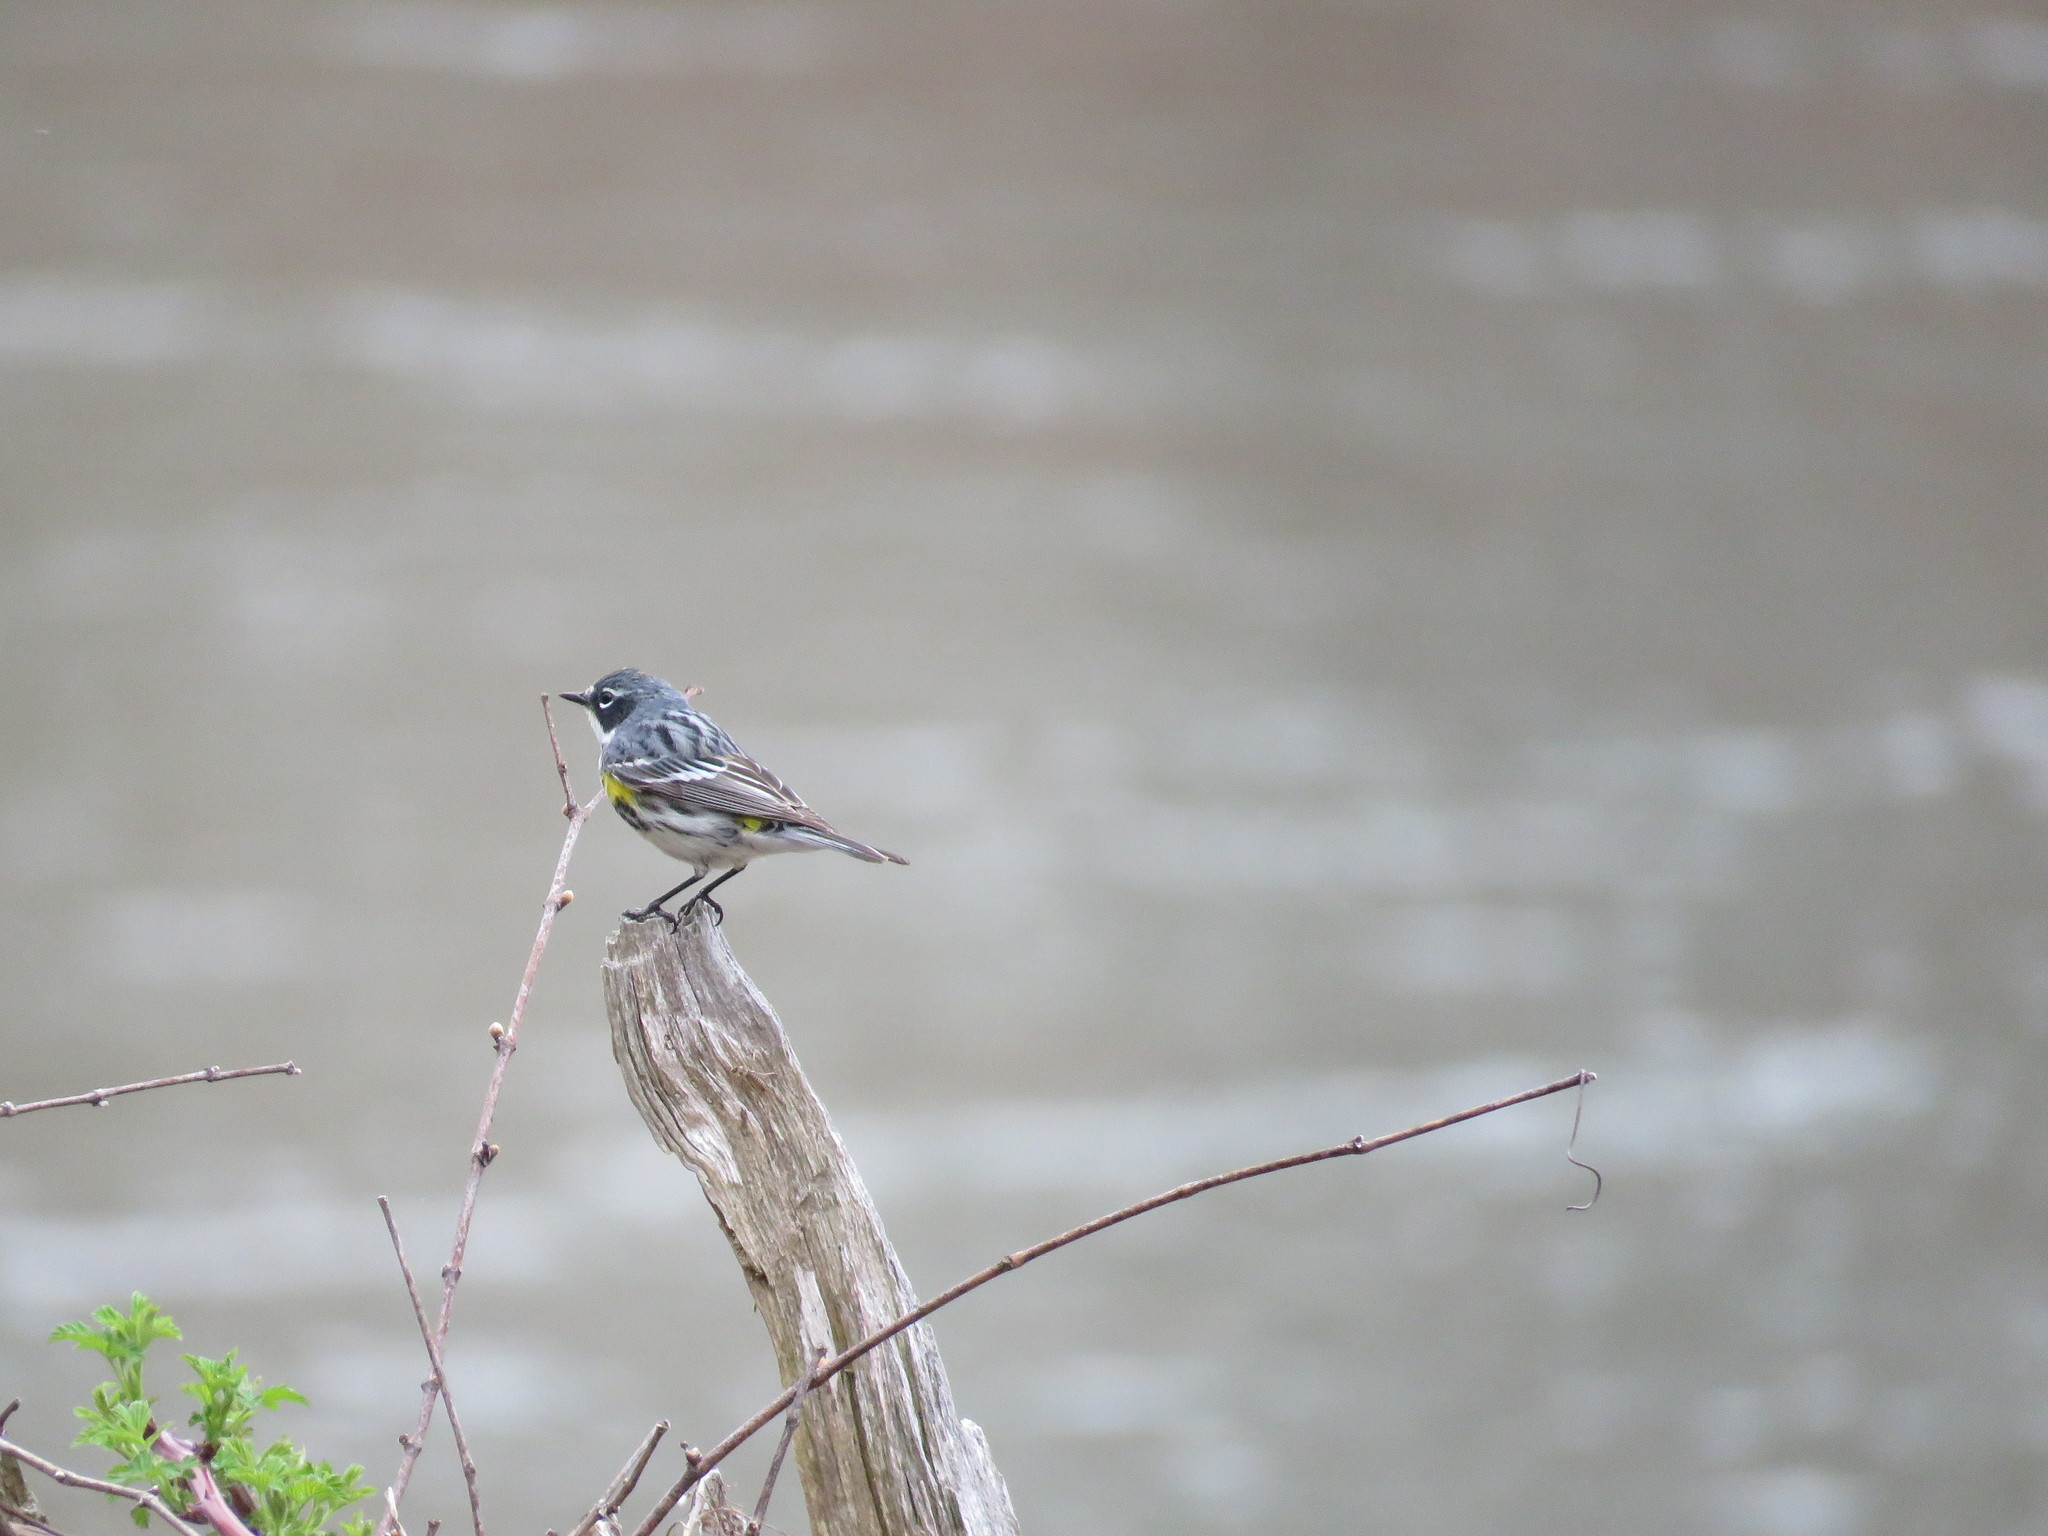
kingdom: Animalia
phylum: Chordata
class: Aves
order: Passeriformes
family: Parulidae
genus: Setophaga
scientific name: Setophaga coronata
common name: Myrtle warbler
